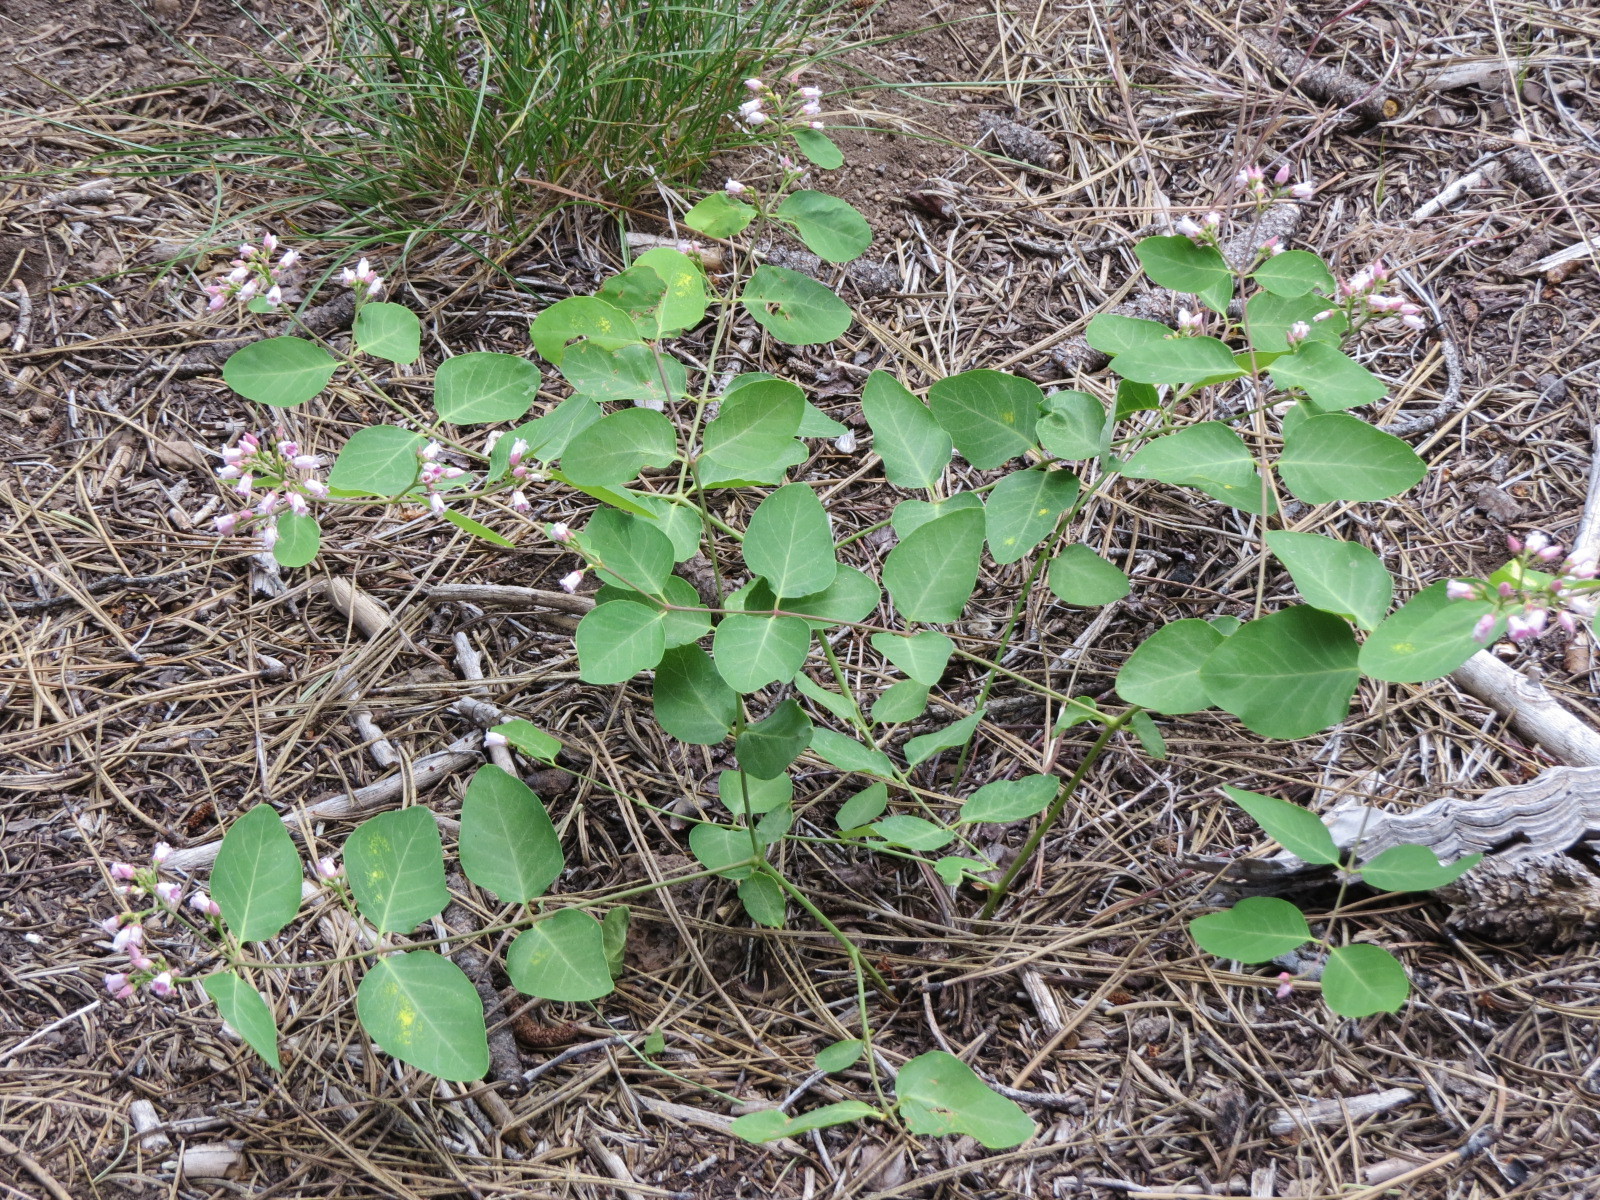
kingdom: Plantae
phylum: Tracheophyta
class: Magnoliopsida
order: Gentianales
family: Apocynaceae
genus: Apocynum
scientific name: Apocynum androsaemifolium
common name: Spreading dogbane
